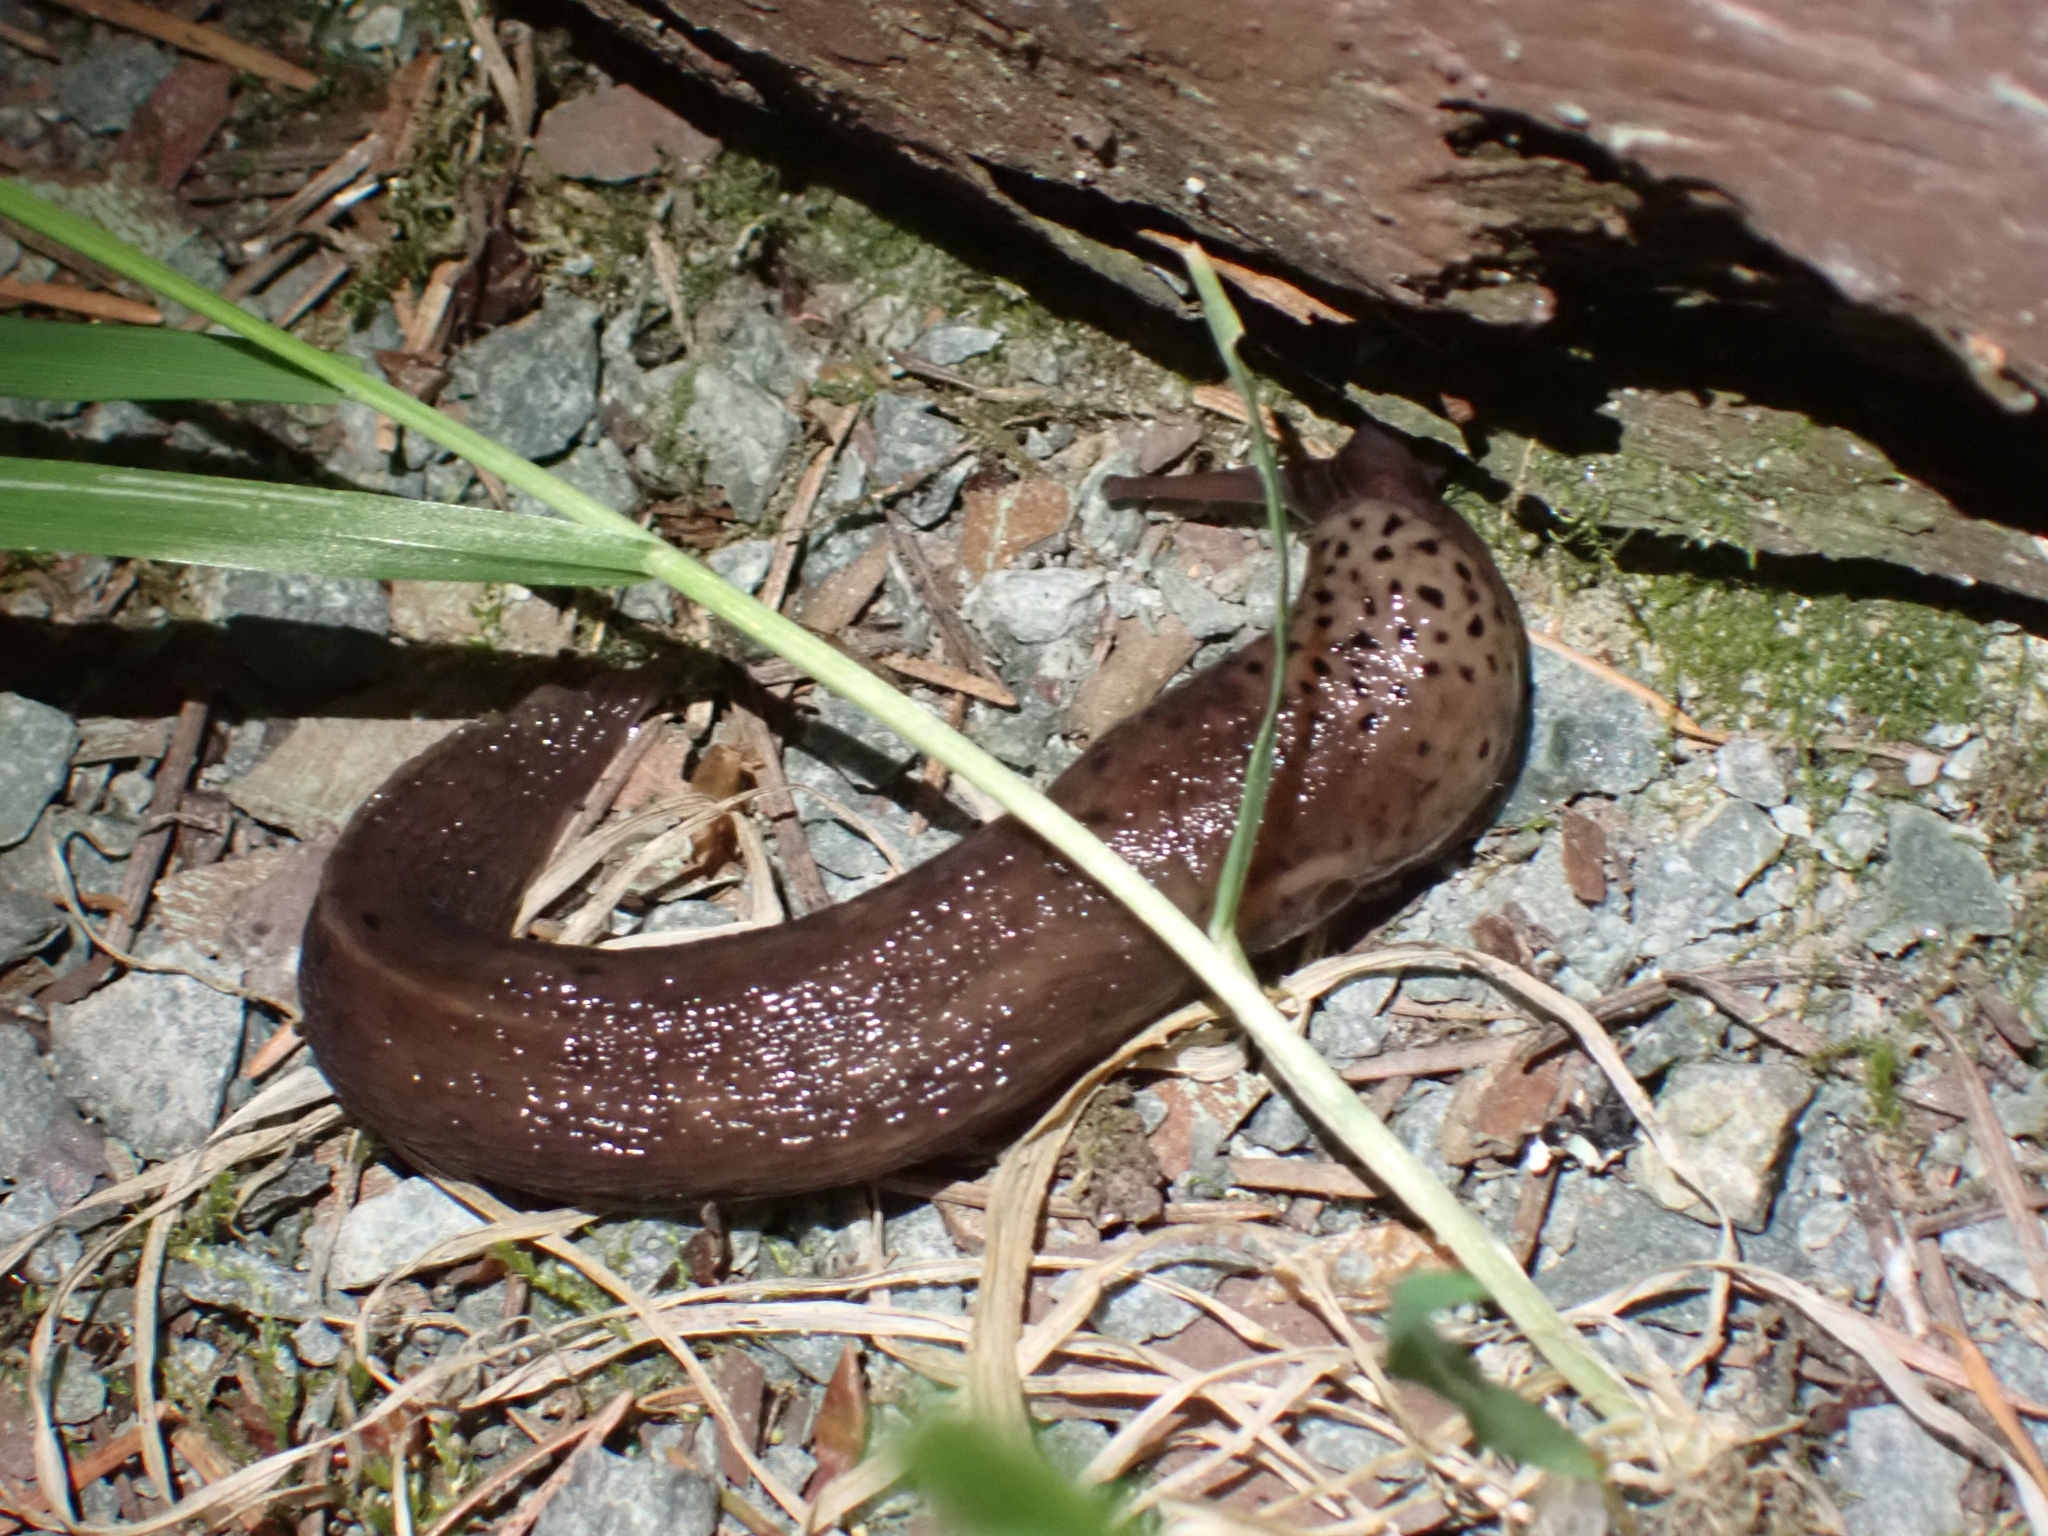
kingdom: Animalia
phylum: Mollusca
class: Gastropoda
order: Stylommatophora
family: Limacidae
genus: Limax
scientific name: Limax maximus
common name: Great grey slug
